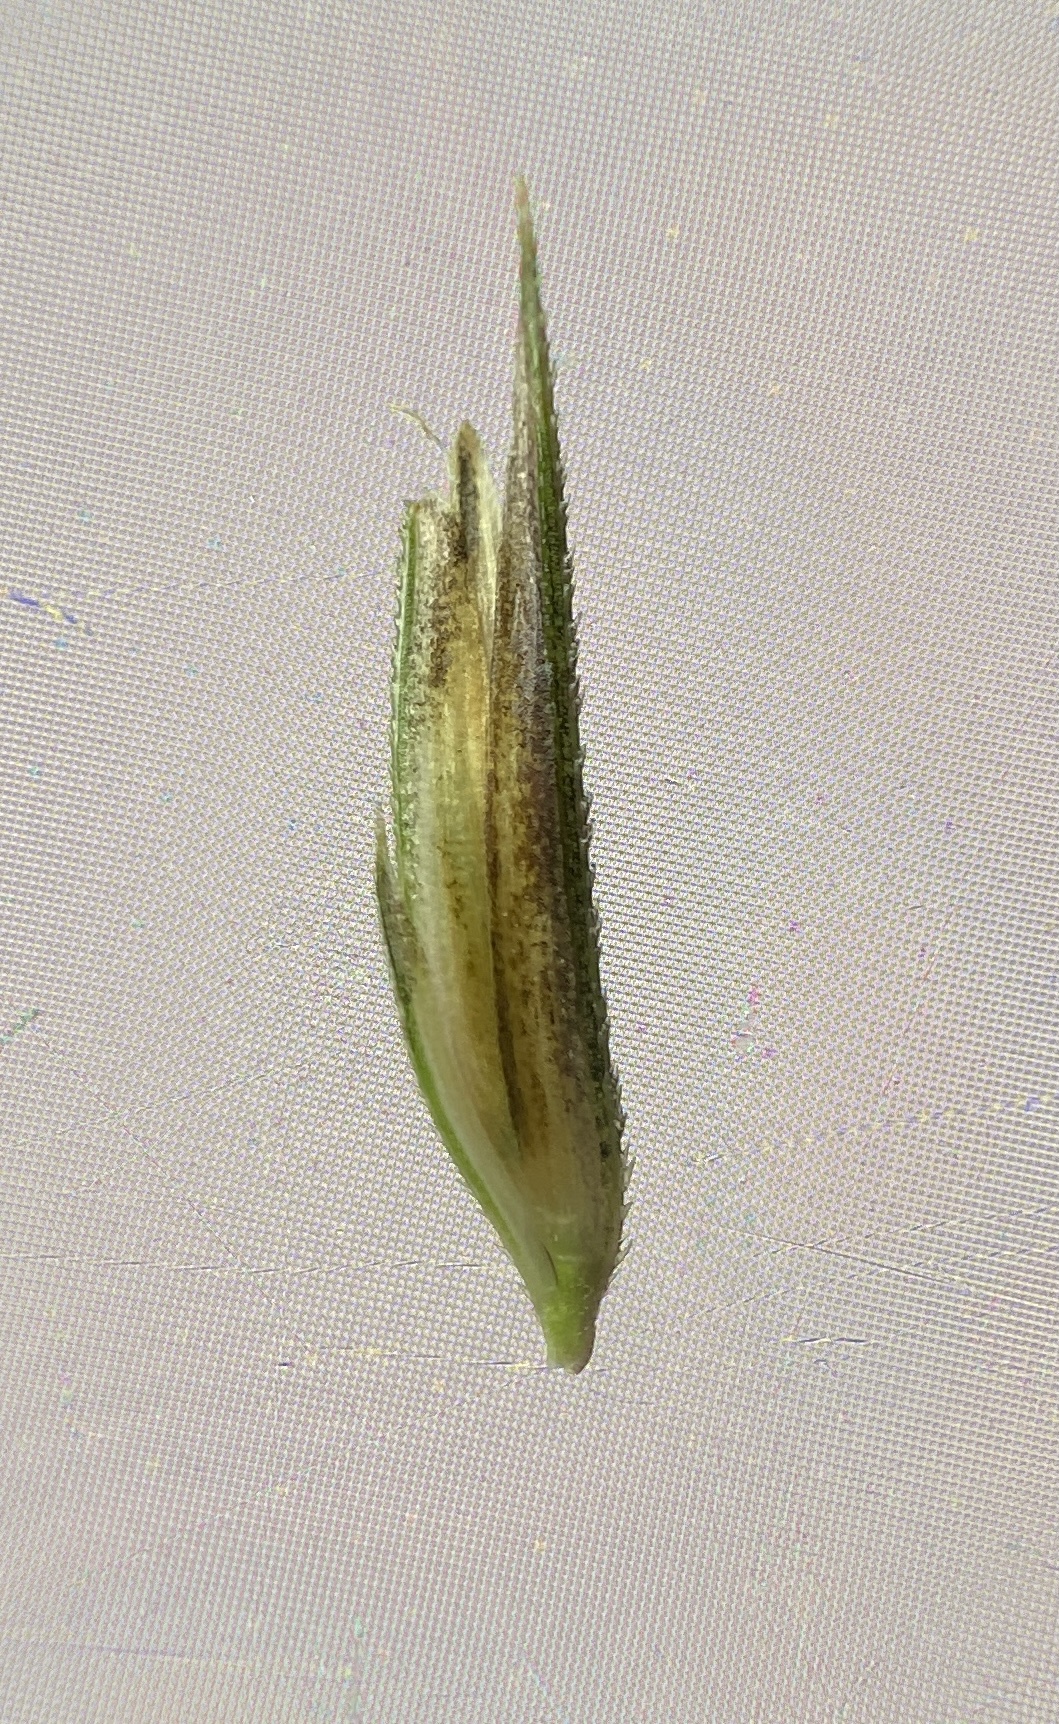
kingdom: Plantae
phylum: Tracheophyta
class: Liliopsida
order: Poales
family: Poaceae
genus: Sporobolus
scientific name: Sporobolus cynosuroides
